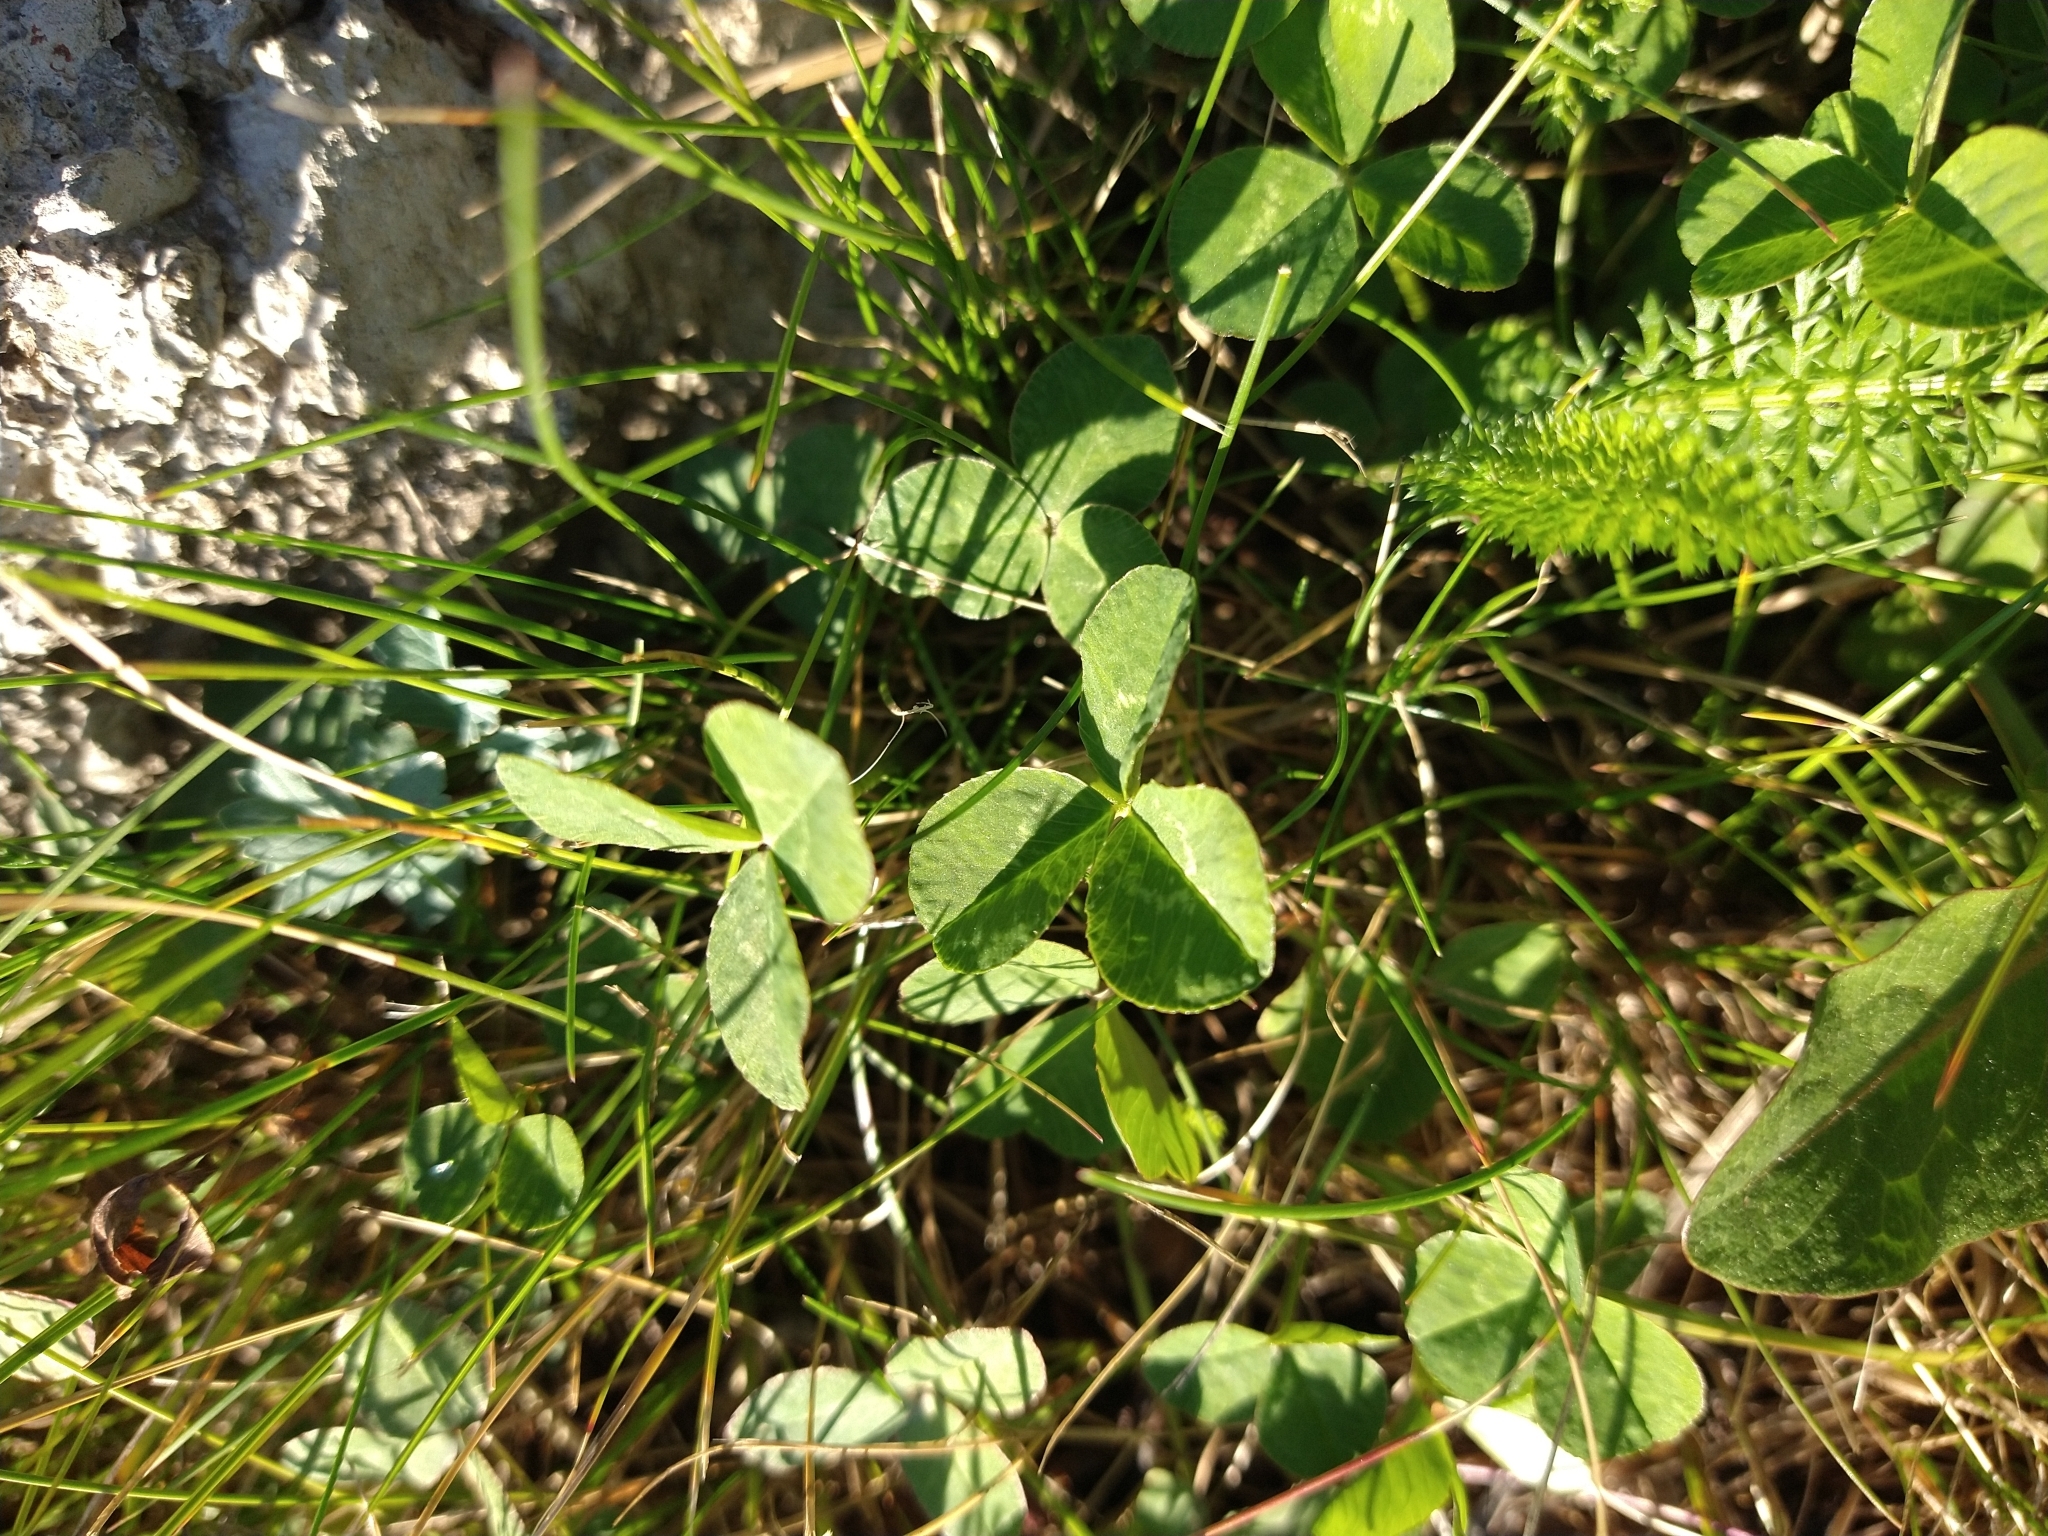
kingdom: Plantae
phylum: Tracheophyta
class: Magnoliopsida
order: Fabales
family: Fabaceae
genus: Trifolium
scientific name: Trifolium repens
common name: White clover
